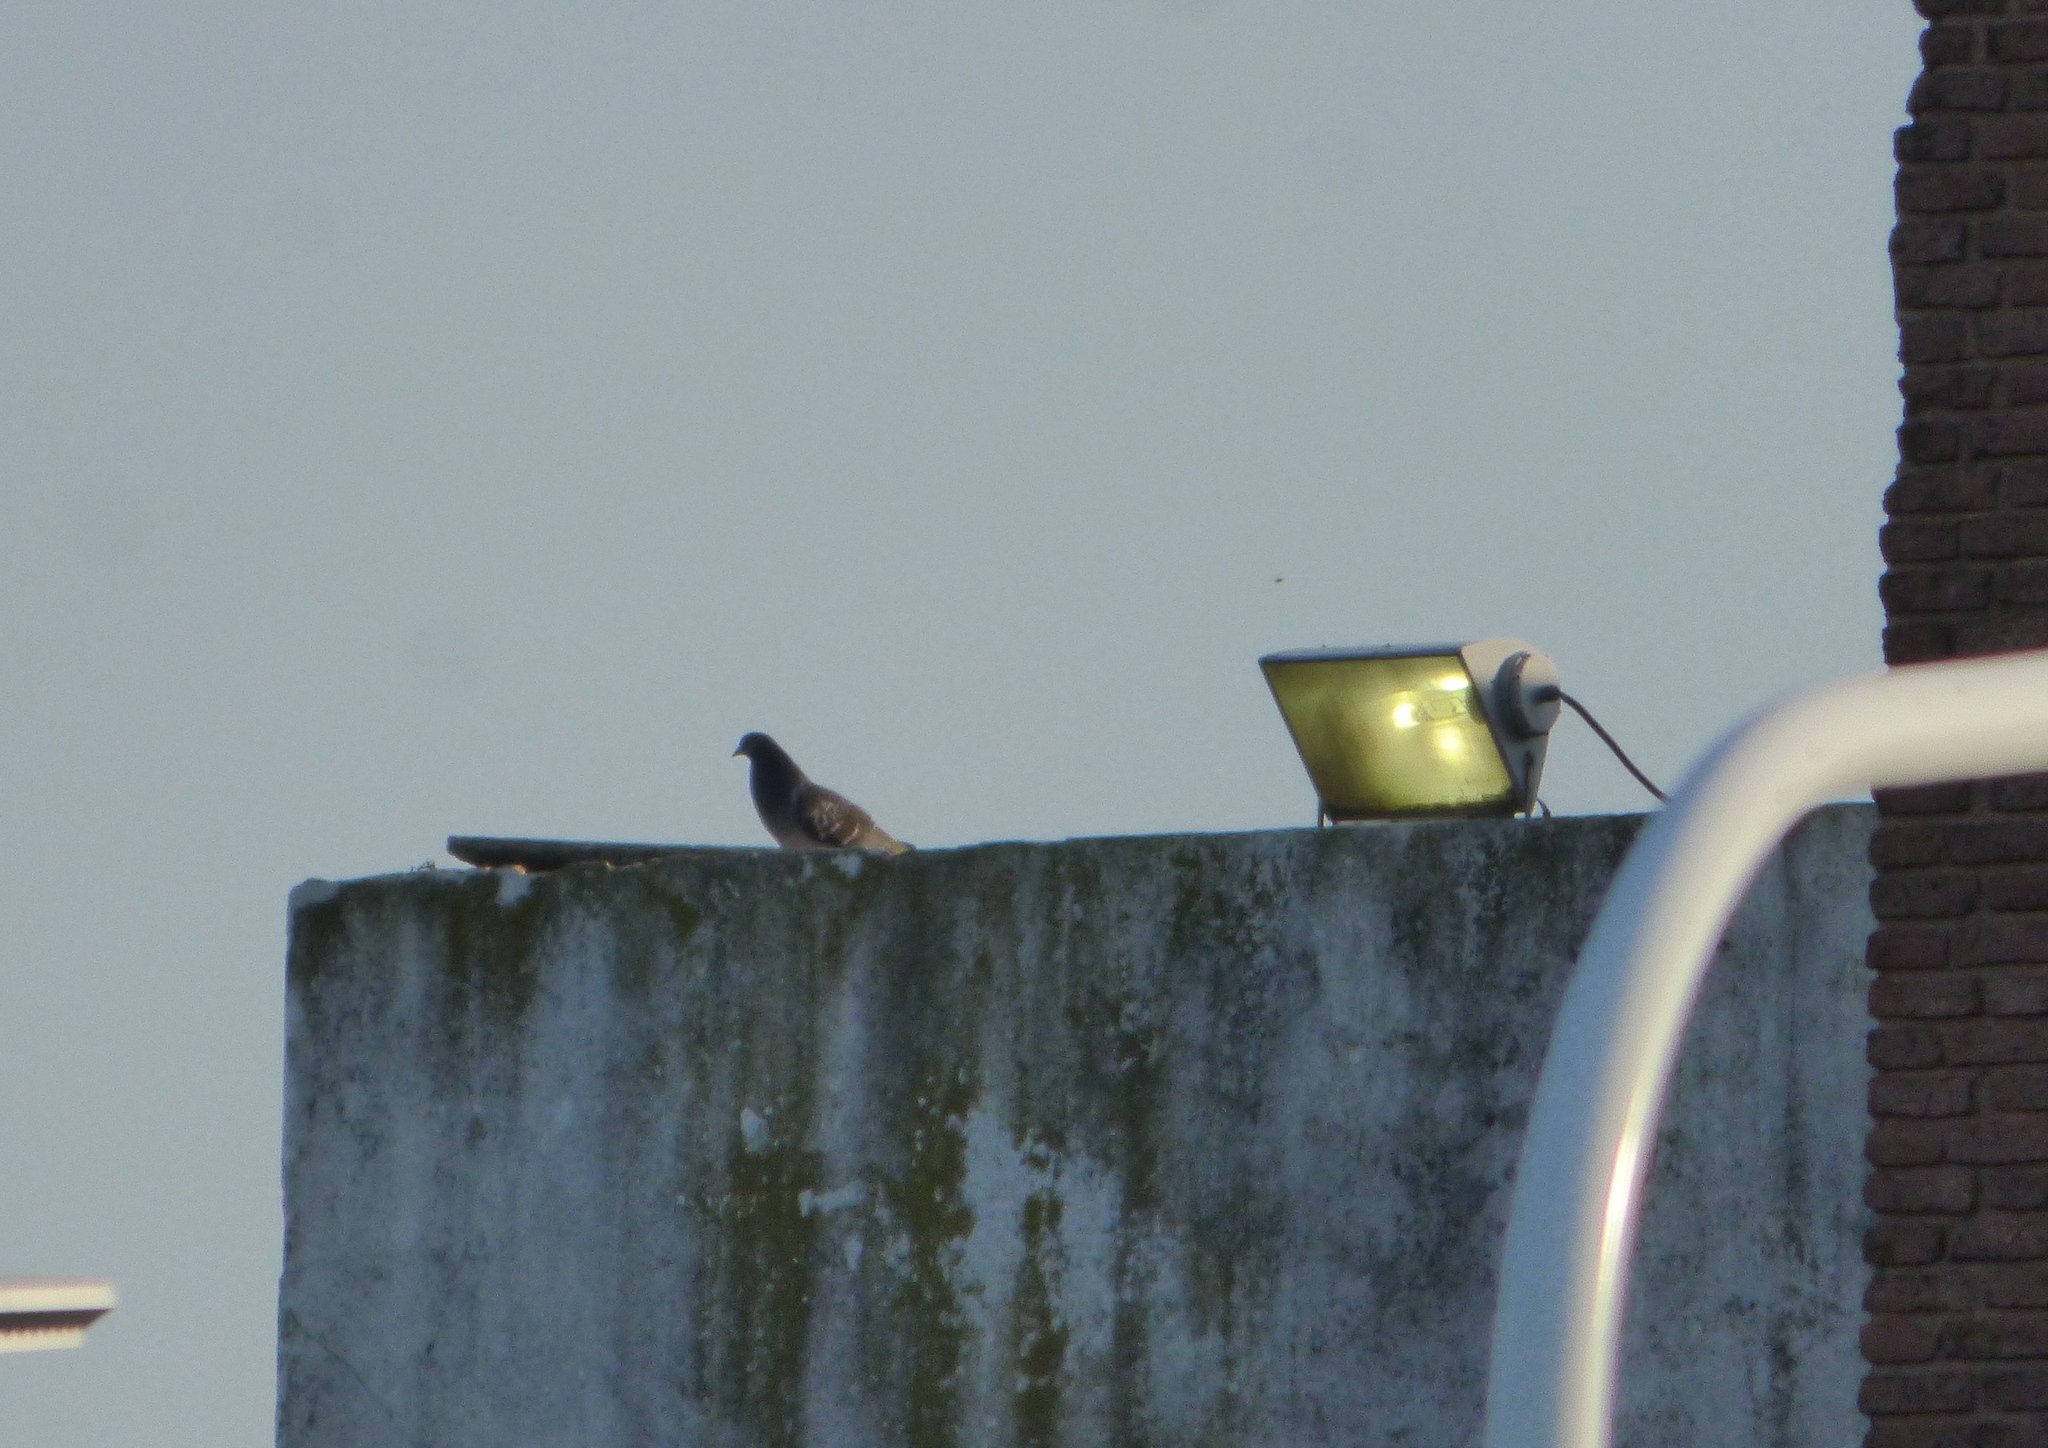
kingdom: Animalia
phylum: Chordata
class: Aves
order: Columbiformes
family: Columbidae
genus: Columba
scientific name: Columba livia
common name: Rock pigeon
